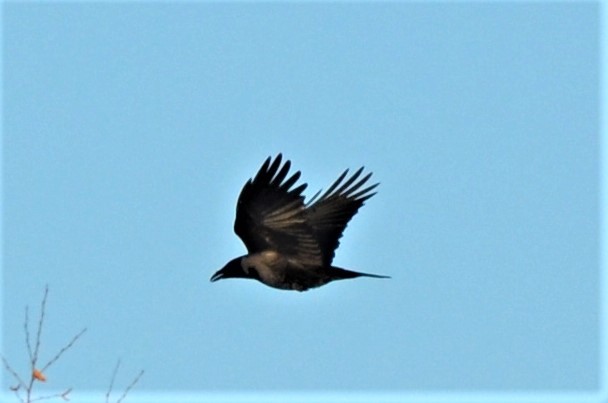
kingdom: Animalia
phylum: Chordata
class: Aves
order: Passeriformes
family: Corvidae
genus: Corvus
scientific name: Corvus
